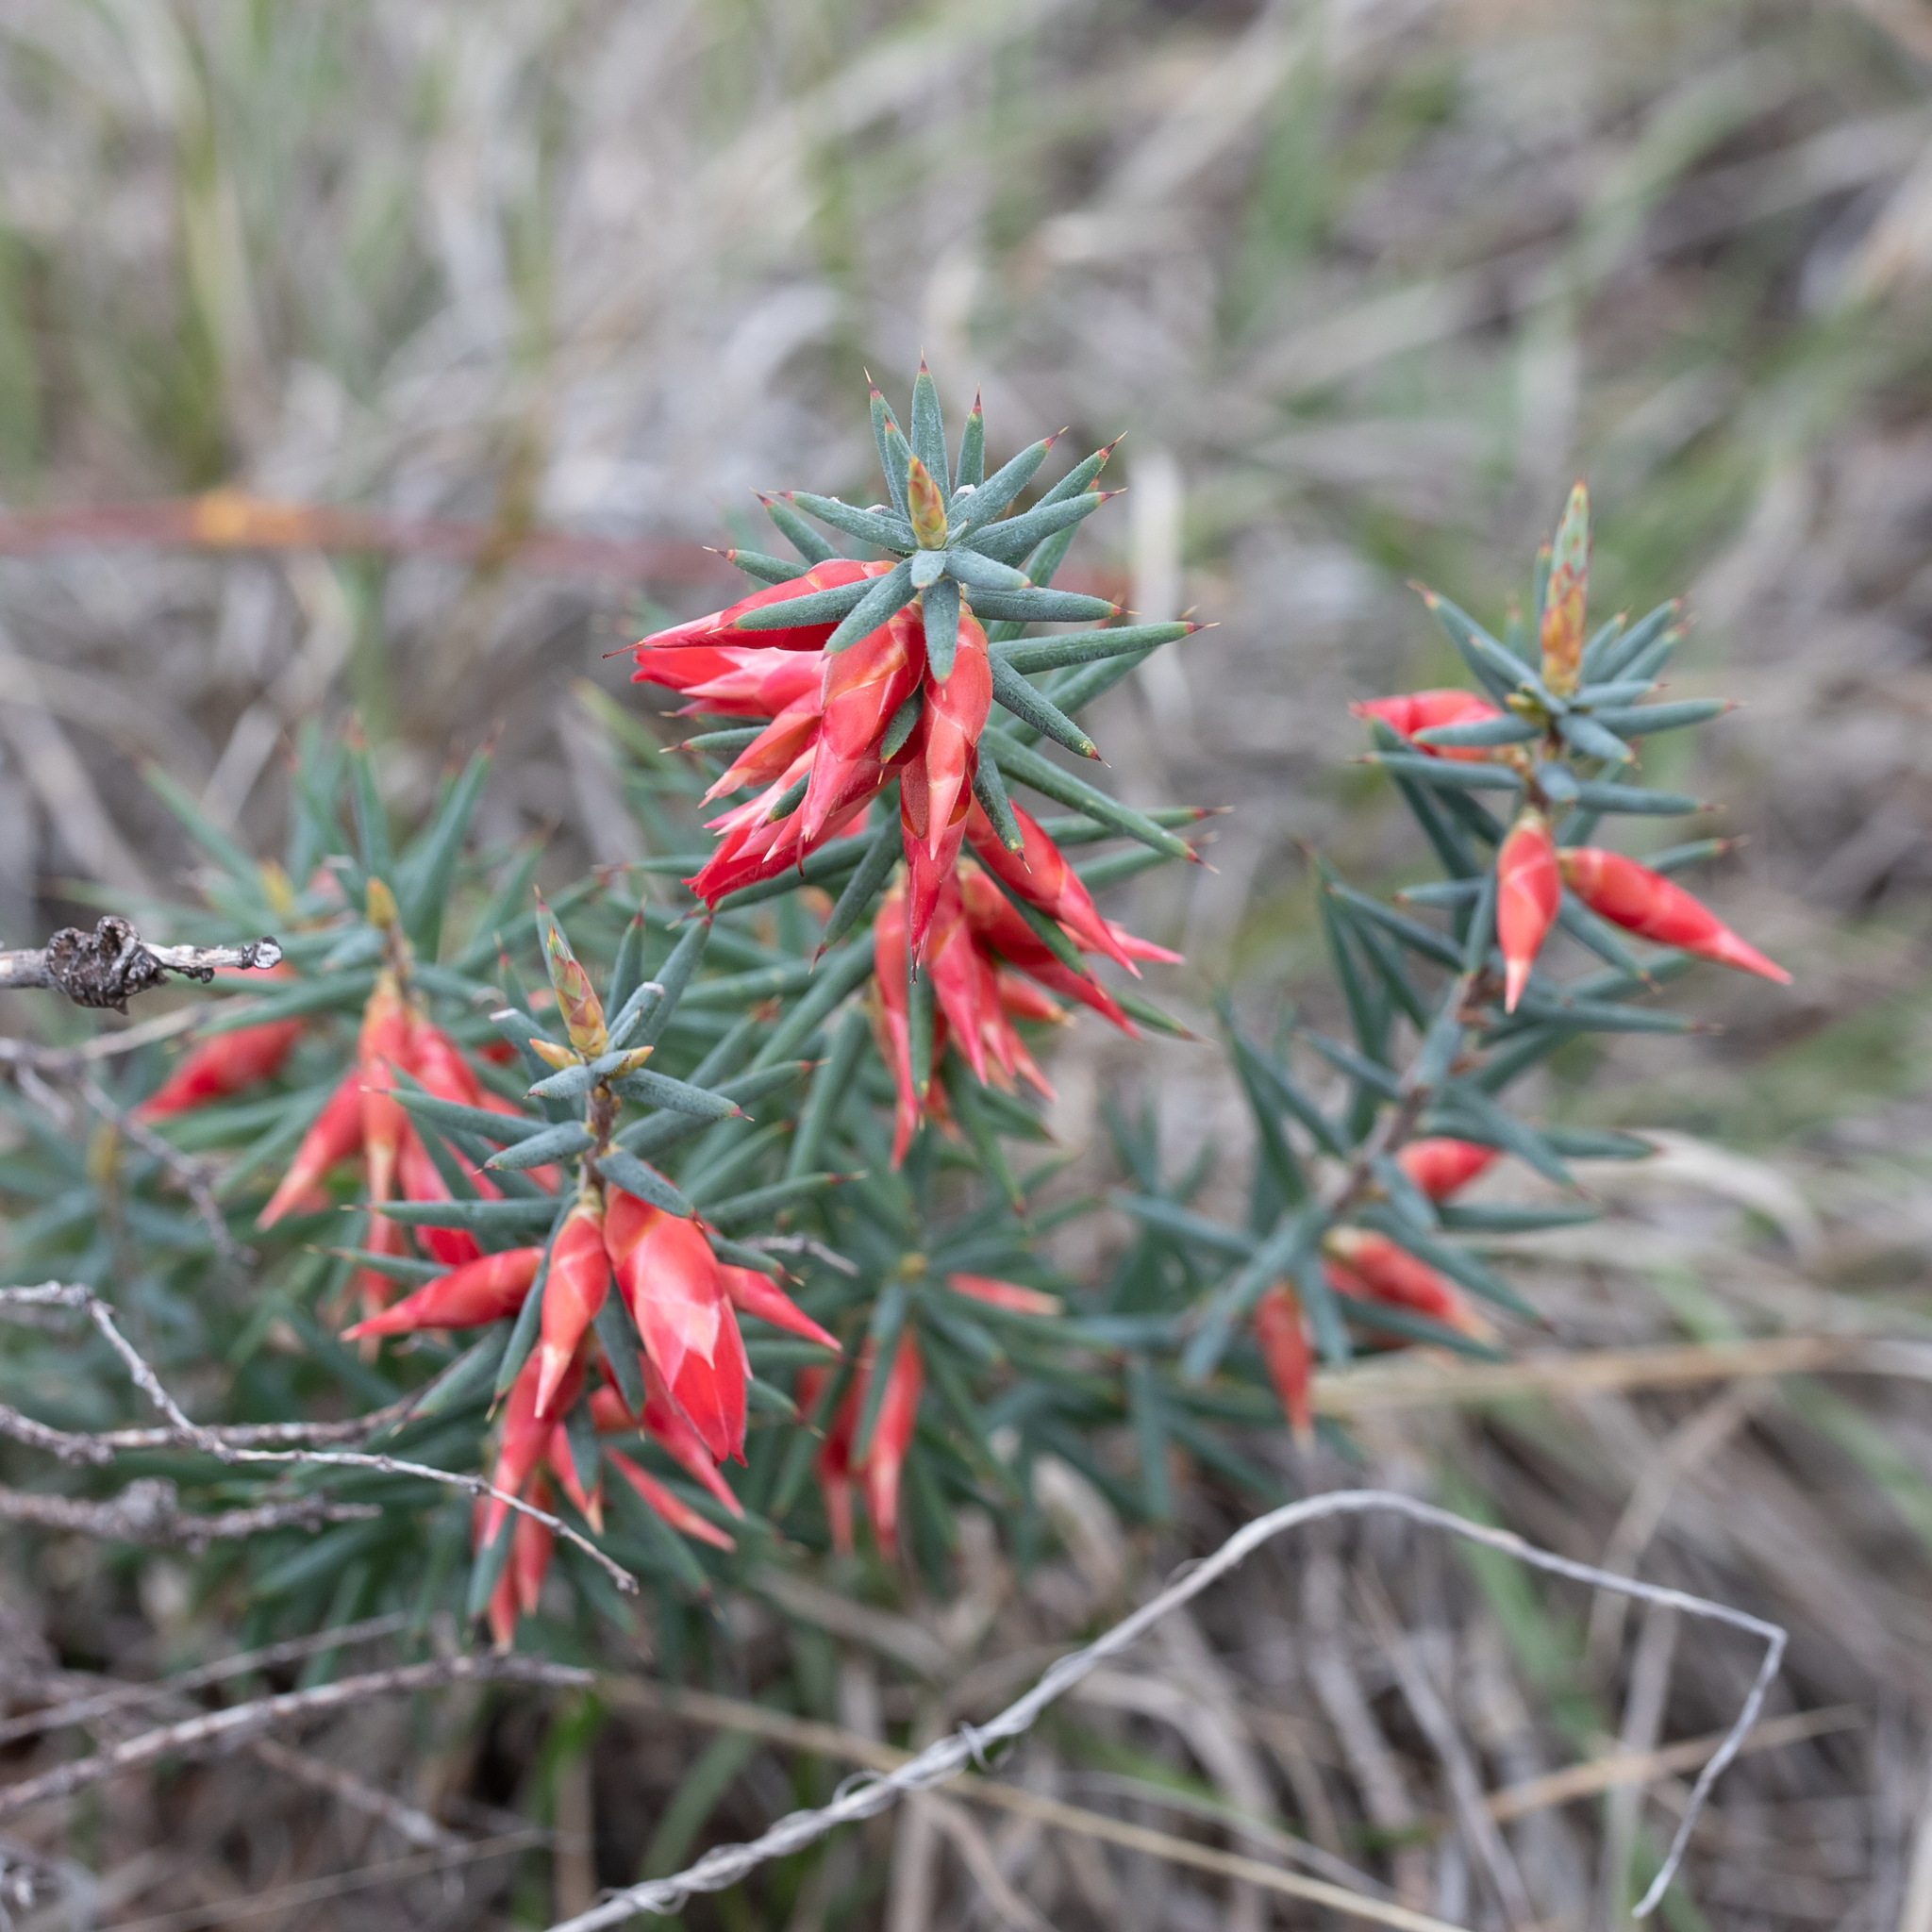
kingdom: Plantae
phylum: Tracheophyta
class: Magnoliopsida
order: Ericales
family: Ericaceae
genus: Stenanthera
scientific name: Stenanthera conostephioides
